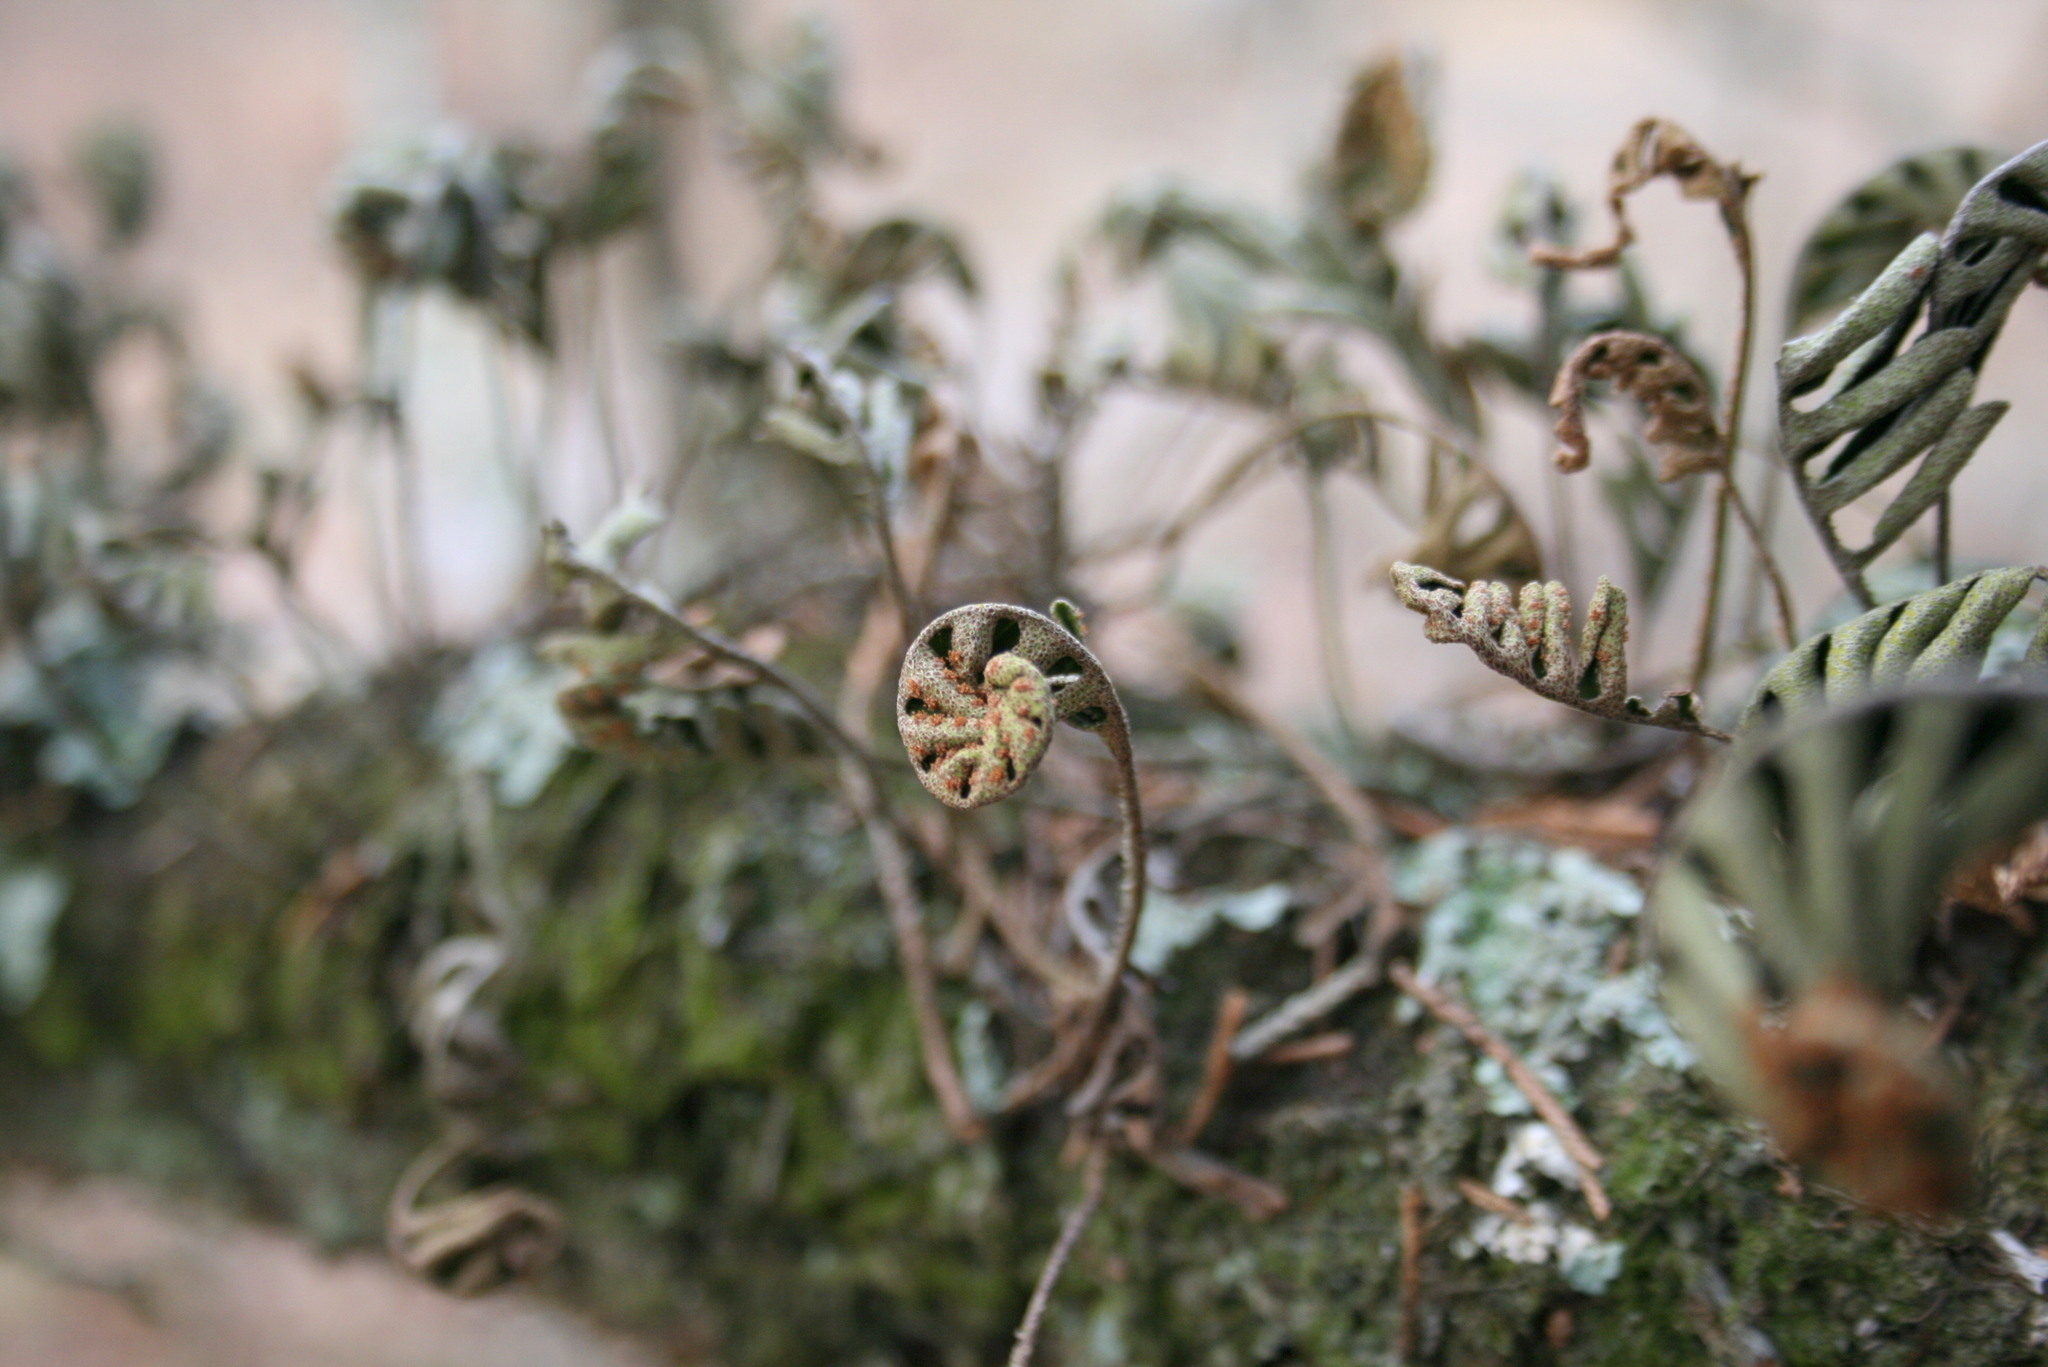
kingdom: Plantae
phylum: Tracheophyta
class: Polypodiopsida
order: Polypodiales
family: Polypodiaceae
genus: Pleopeltis
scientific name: Pleopeltis michauxiana
